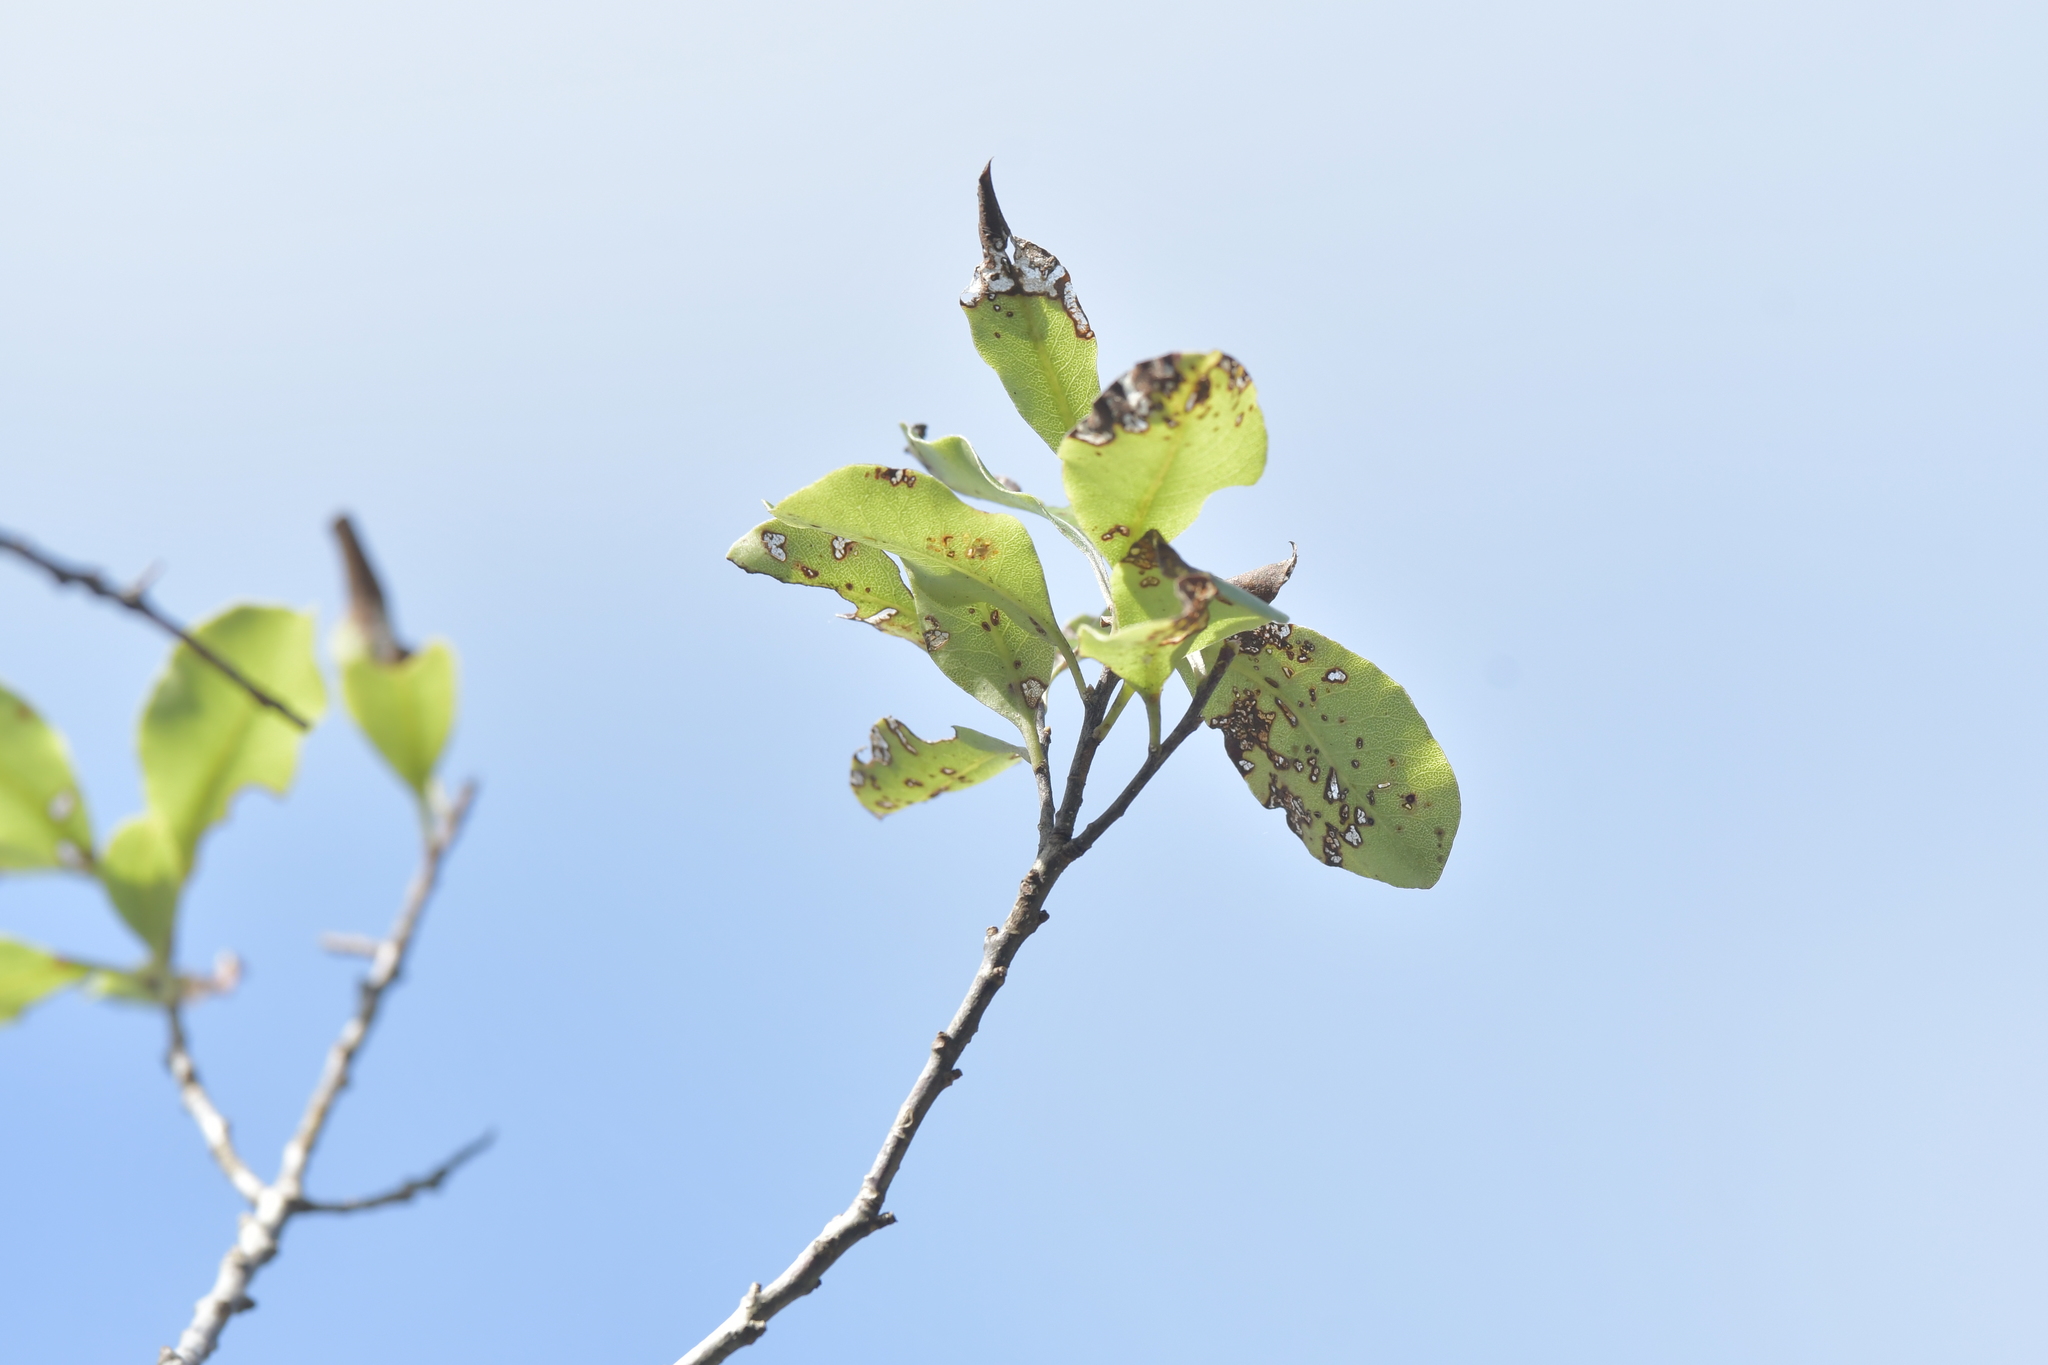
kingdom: Animalia
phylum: Arthropoda
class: Insecta
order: Hymenoptera
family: Vespidae
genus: Vespula
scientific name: Vespula vulgaris
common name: Common wasp
